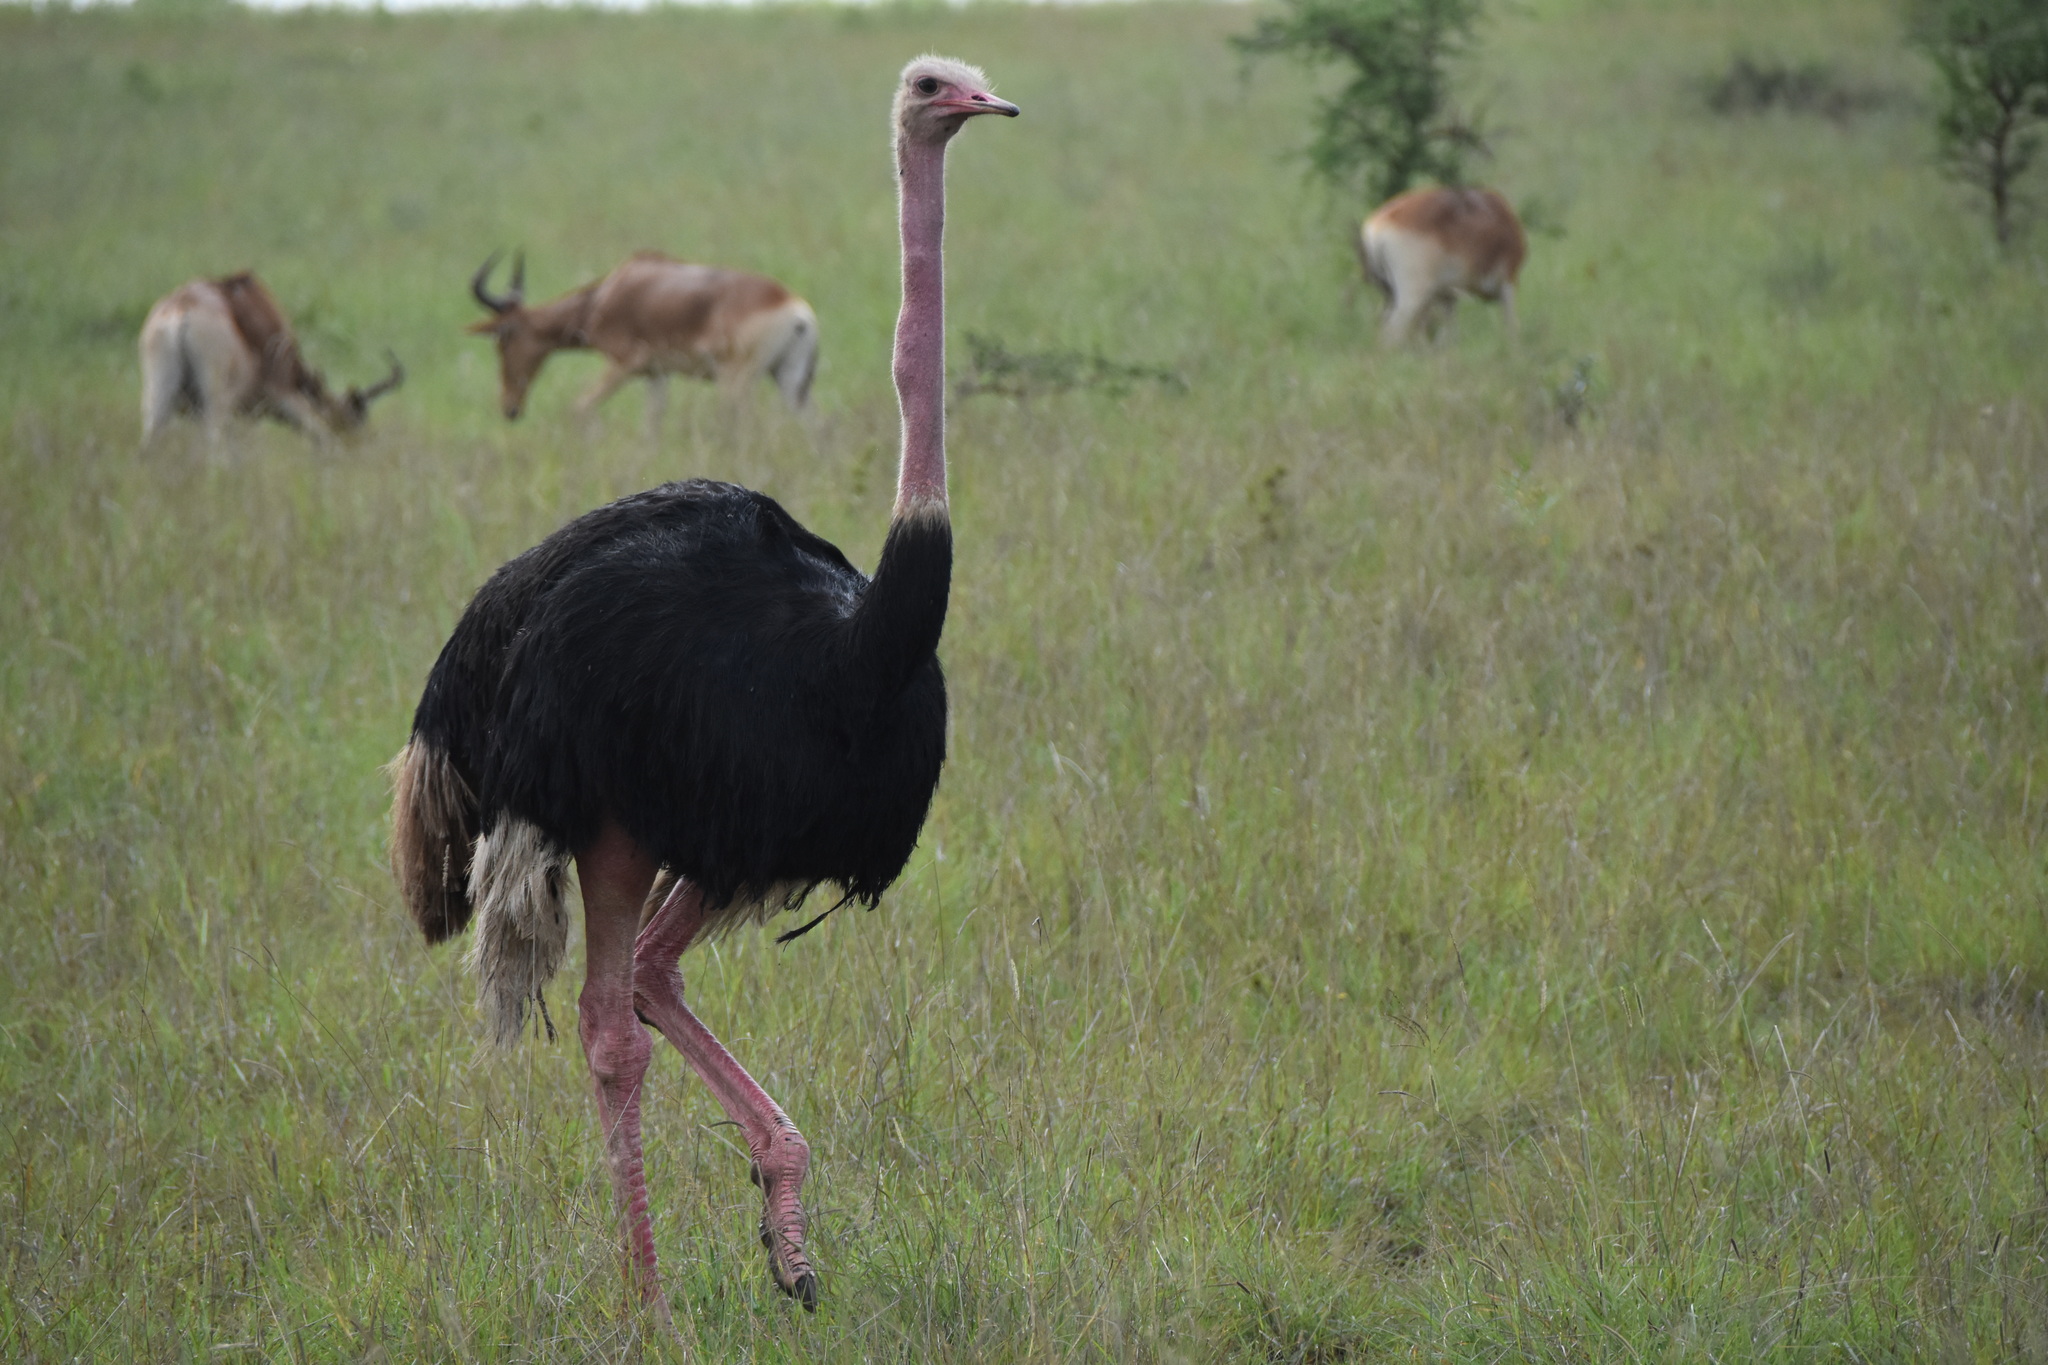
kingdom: Animalia
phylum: Chordata
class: Aves
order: Struthioniformes
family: Struthionidae
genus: Struthio
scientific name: Struthio camelus
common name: Common ostrich
